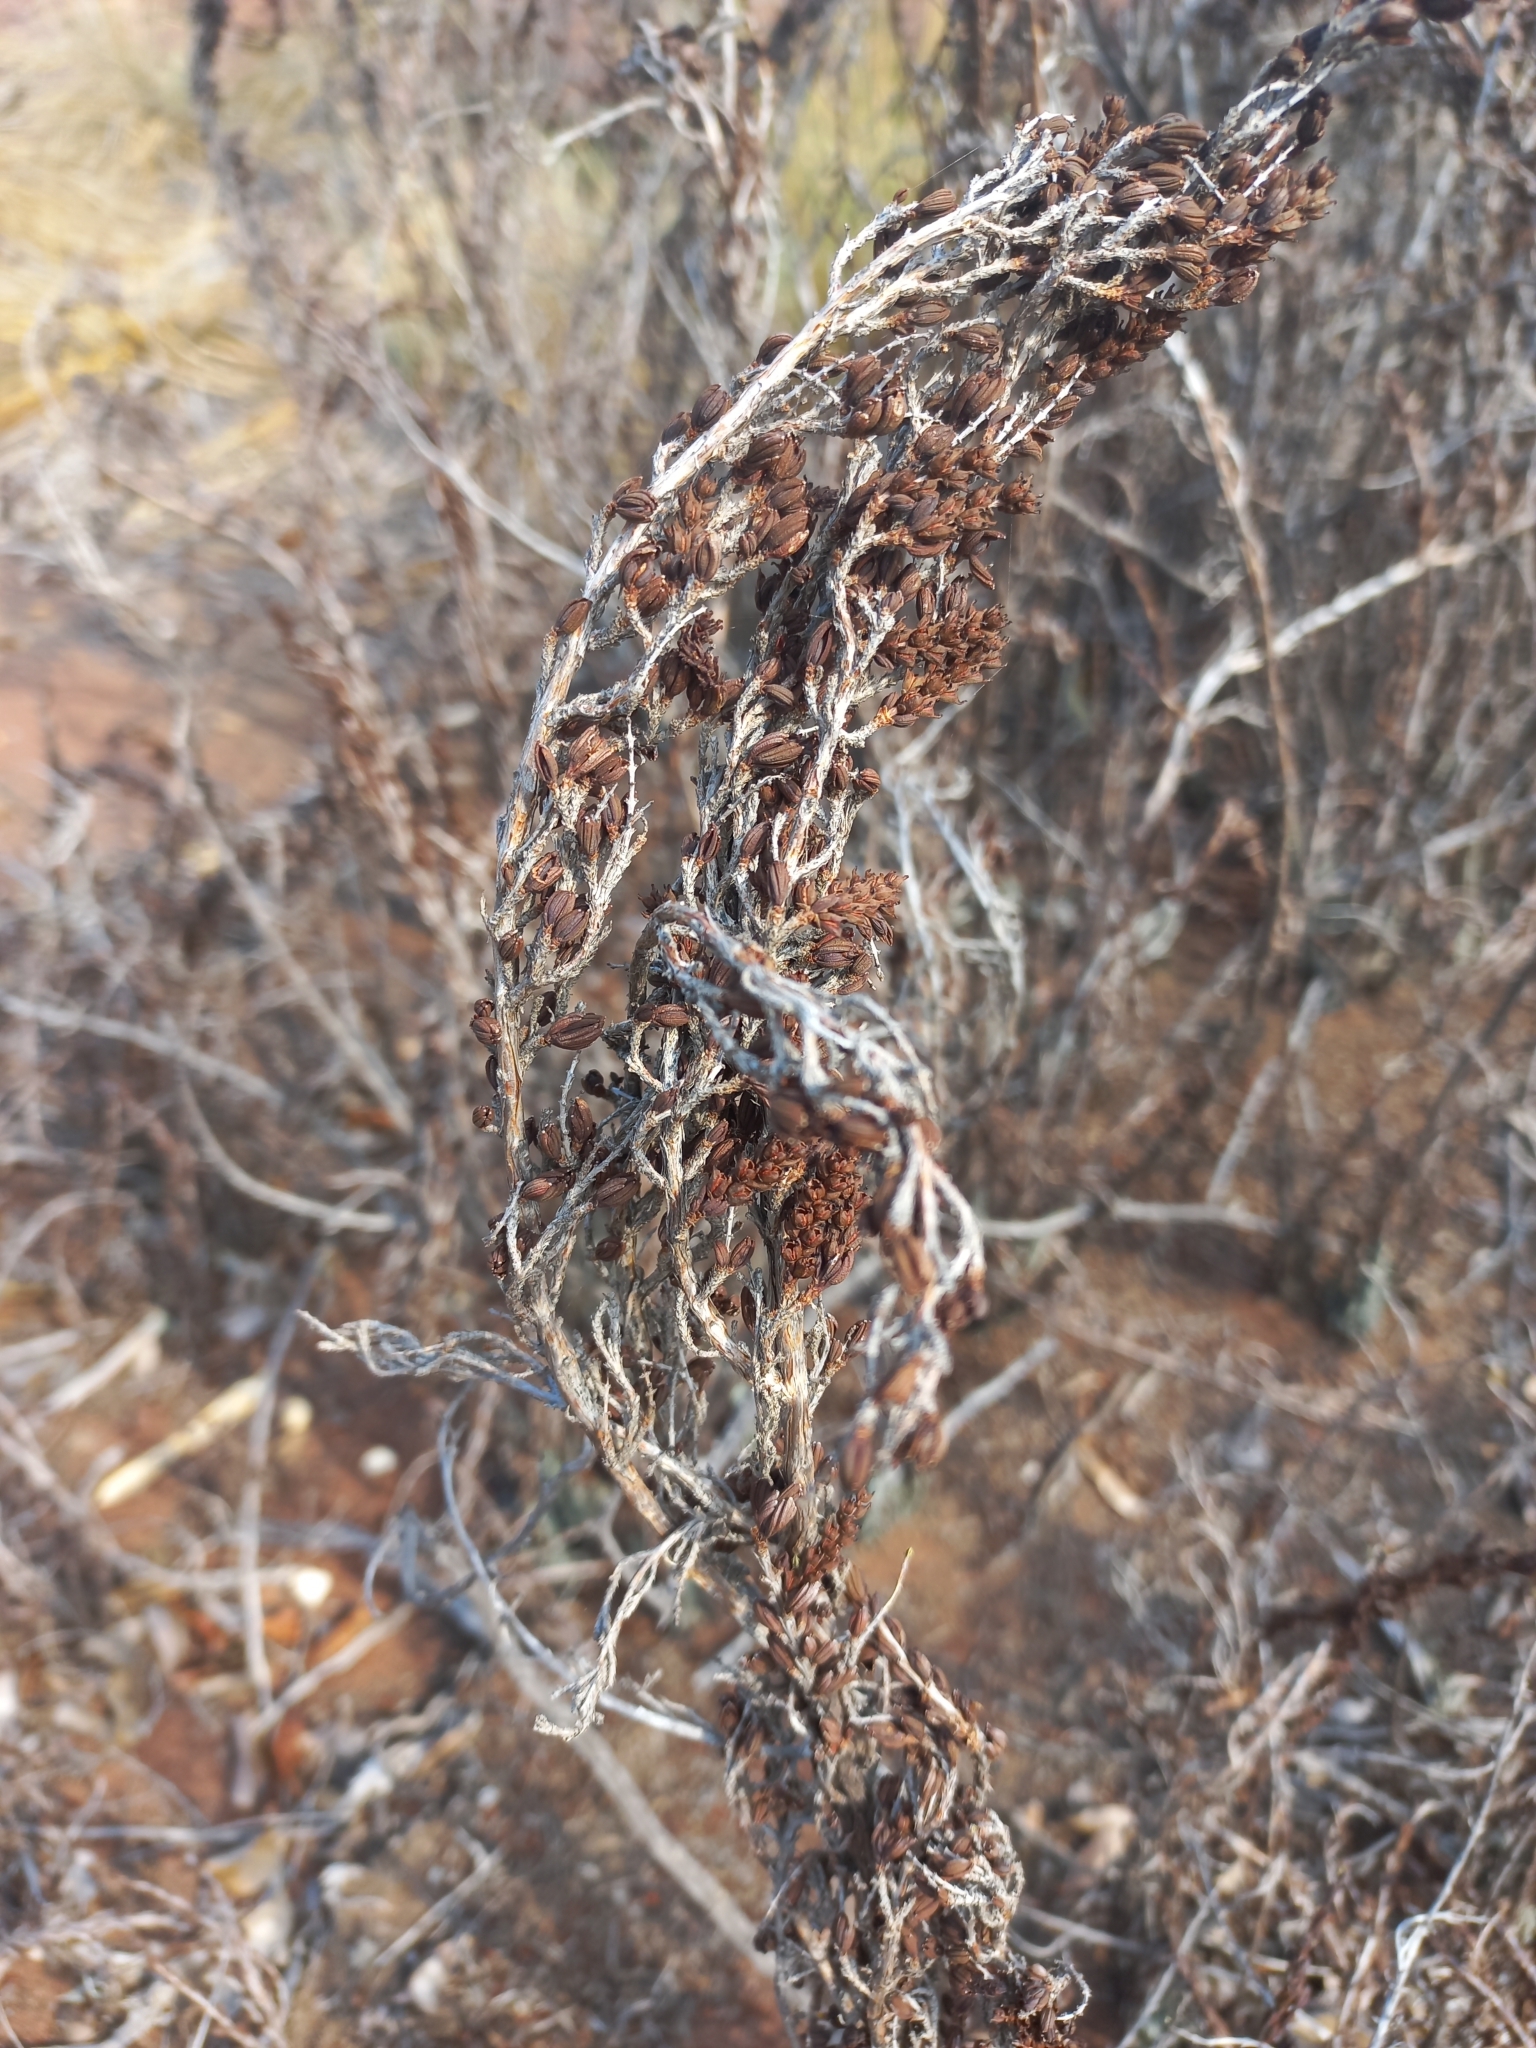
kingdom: Plantae
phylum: Tracheophyta
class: Magnoliopsida
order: Gunnerales
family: Myrothamnaceae
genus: Myrothamnus
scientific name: Myrothamnus flabellifolius
